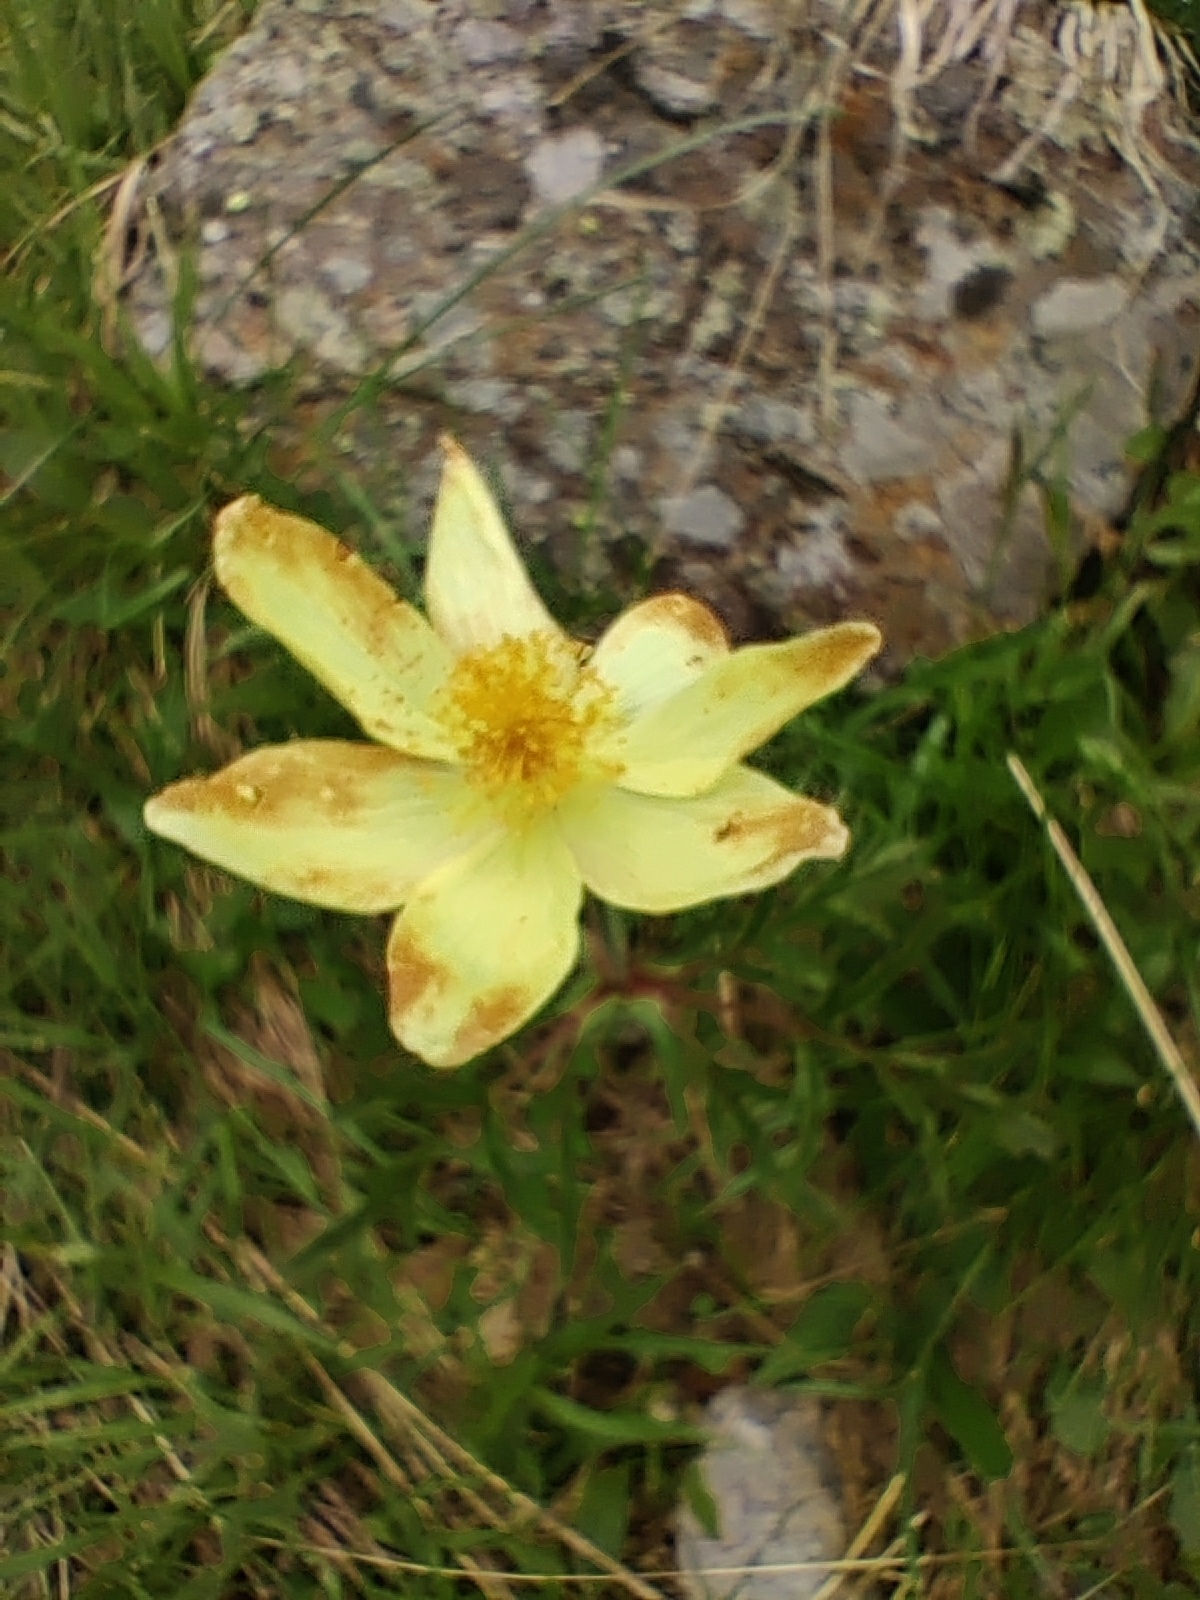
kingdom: Plantae
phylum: Tracheophyta
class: Magnoliopsida
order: Ranunculales
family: Ranunculaceae
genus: Pulsatilla
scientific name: Pulsatilla alpina
